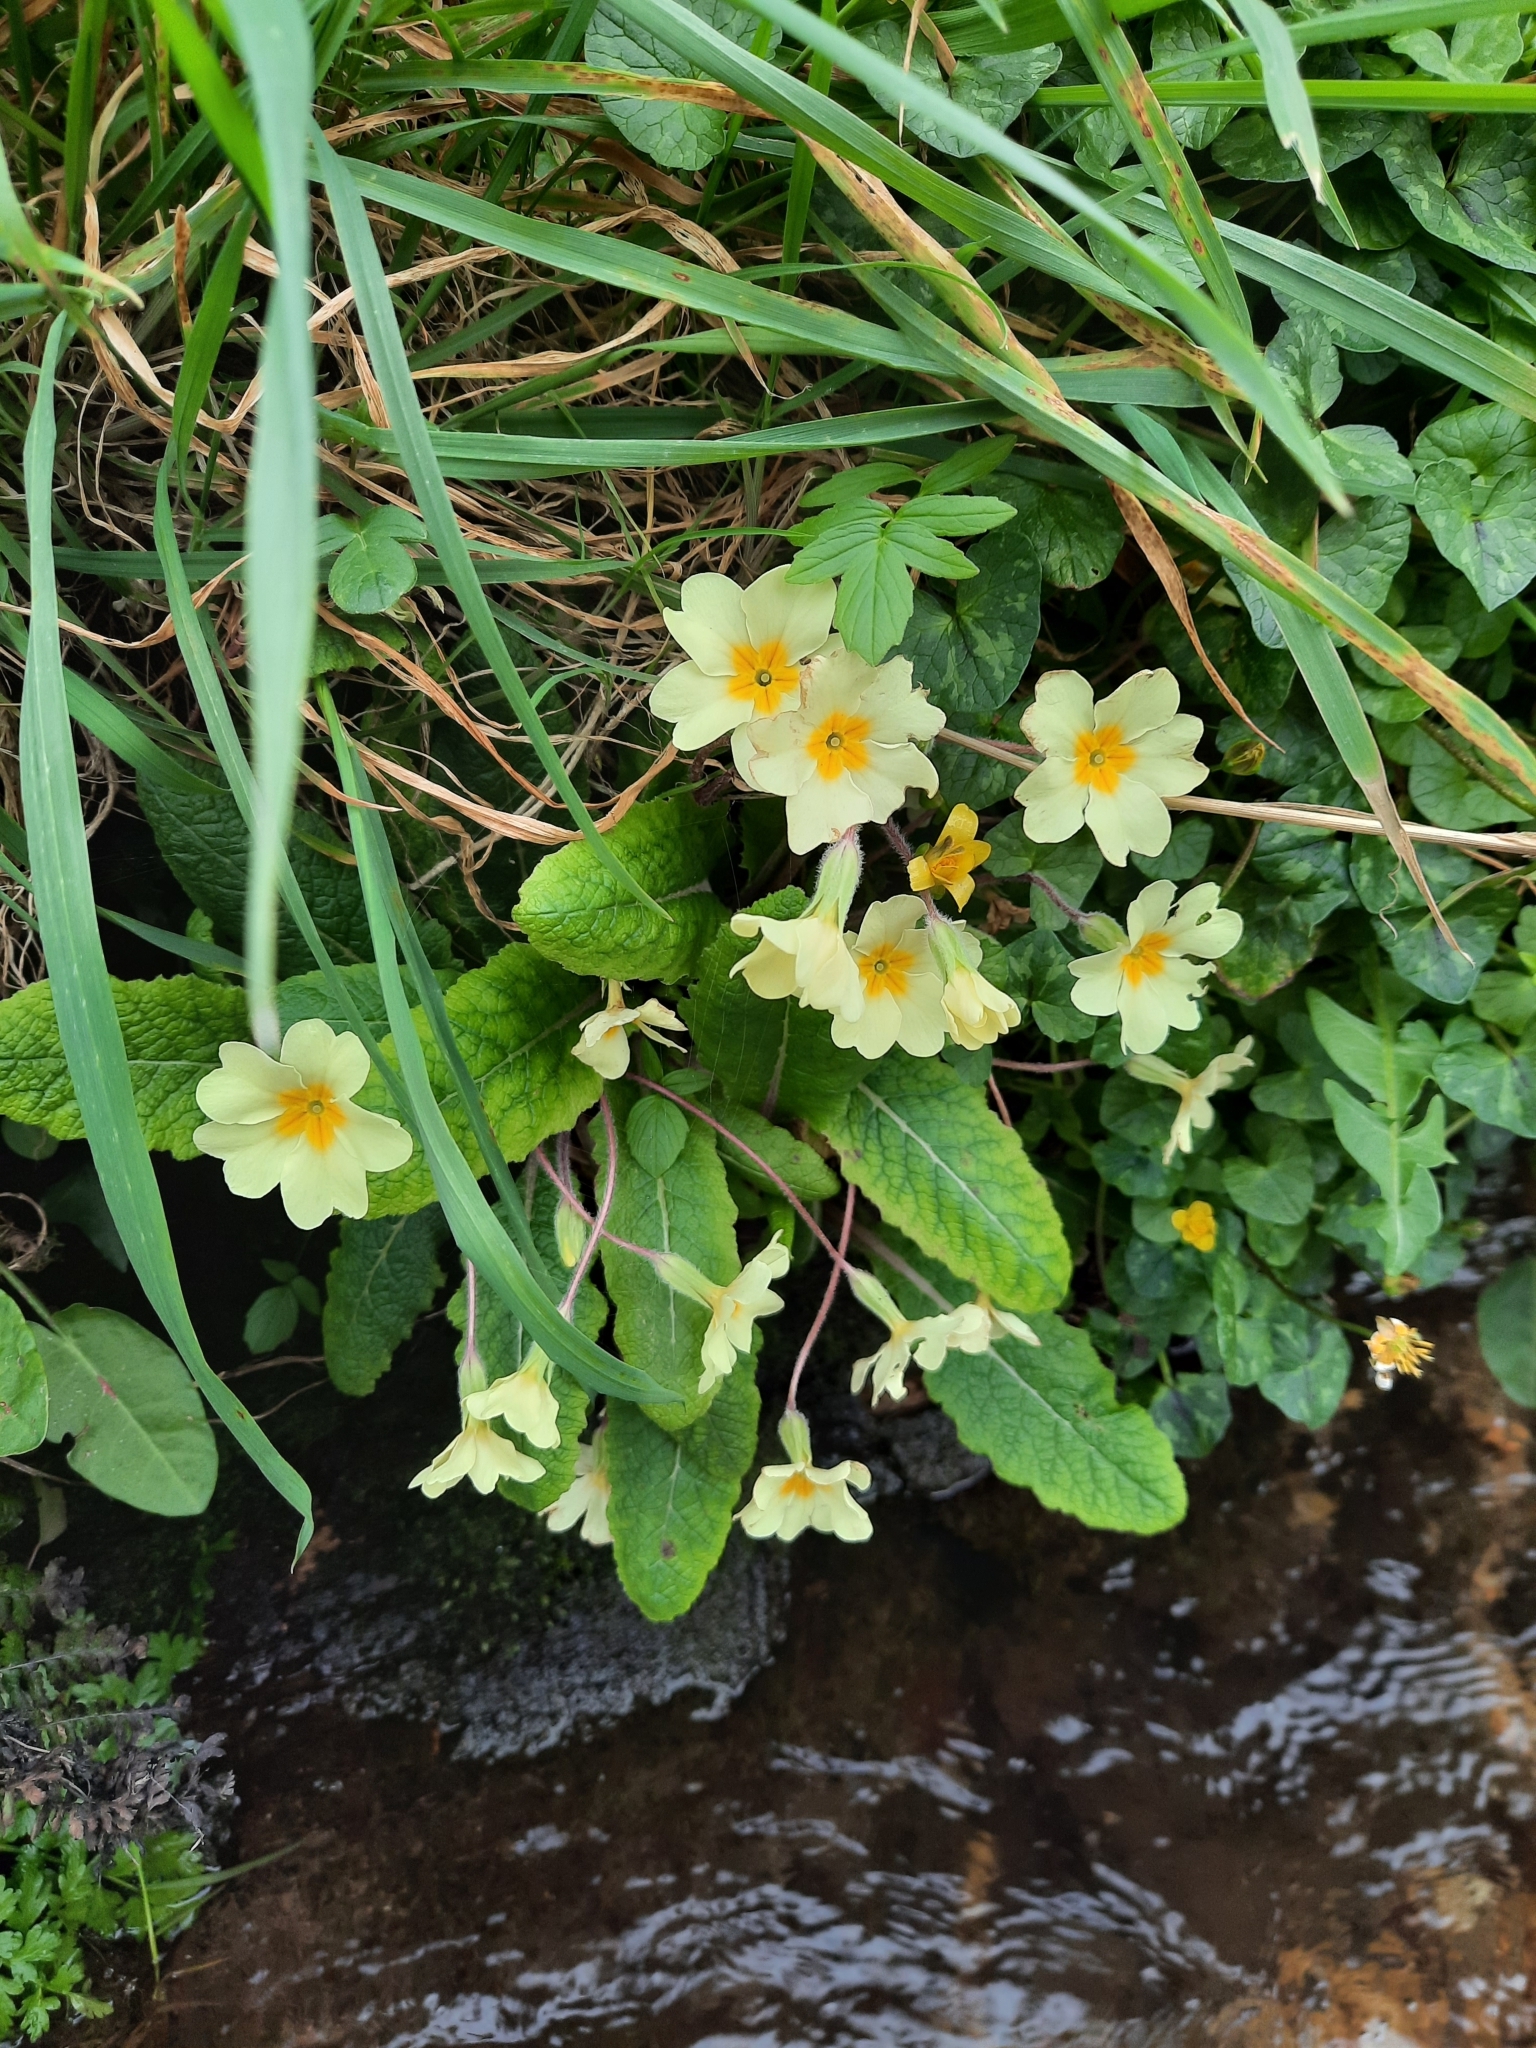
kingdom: Plantae
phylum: Tracheophyta
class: Magnoliopsida
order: Ericales
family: Primulaceae
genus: Primula
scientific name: Primula vulgaris
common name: Primrose
